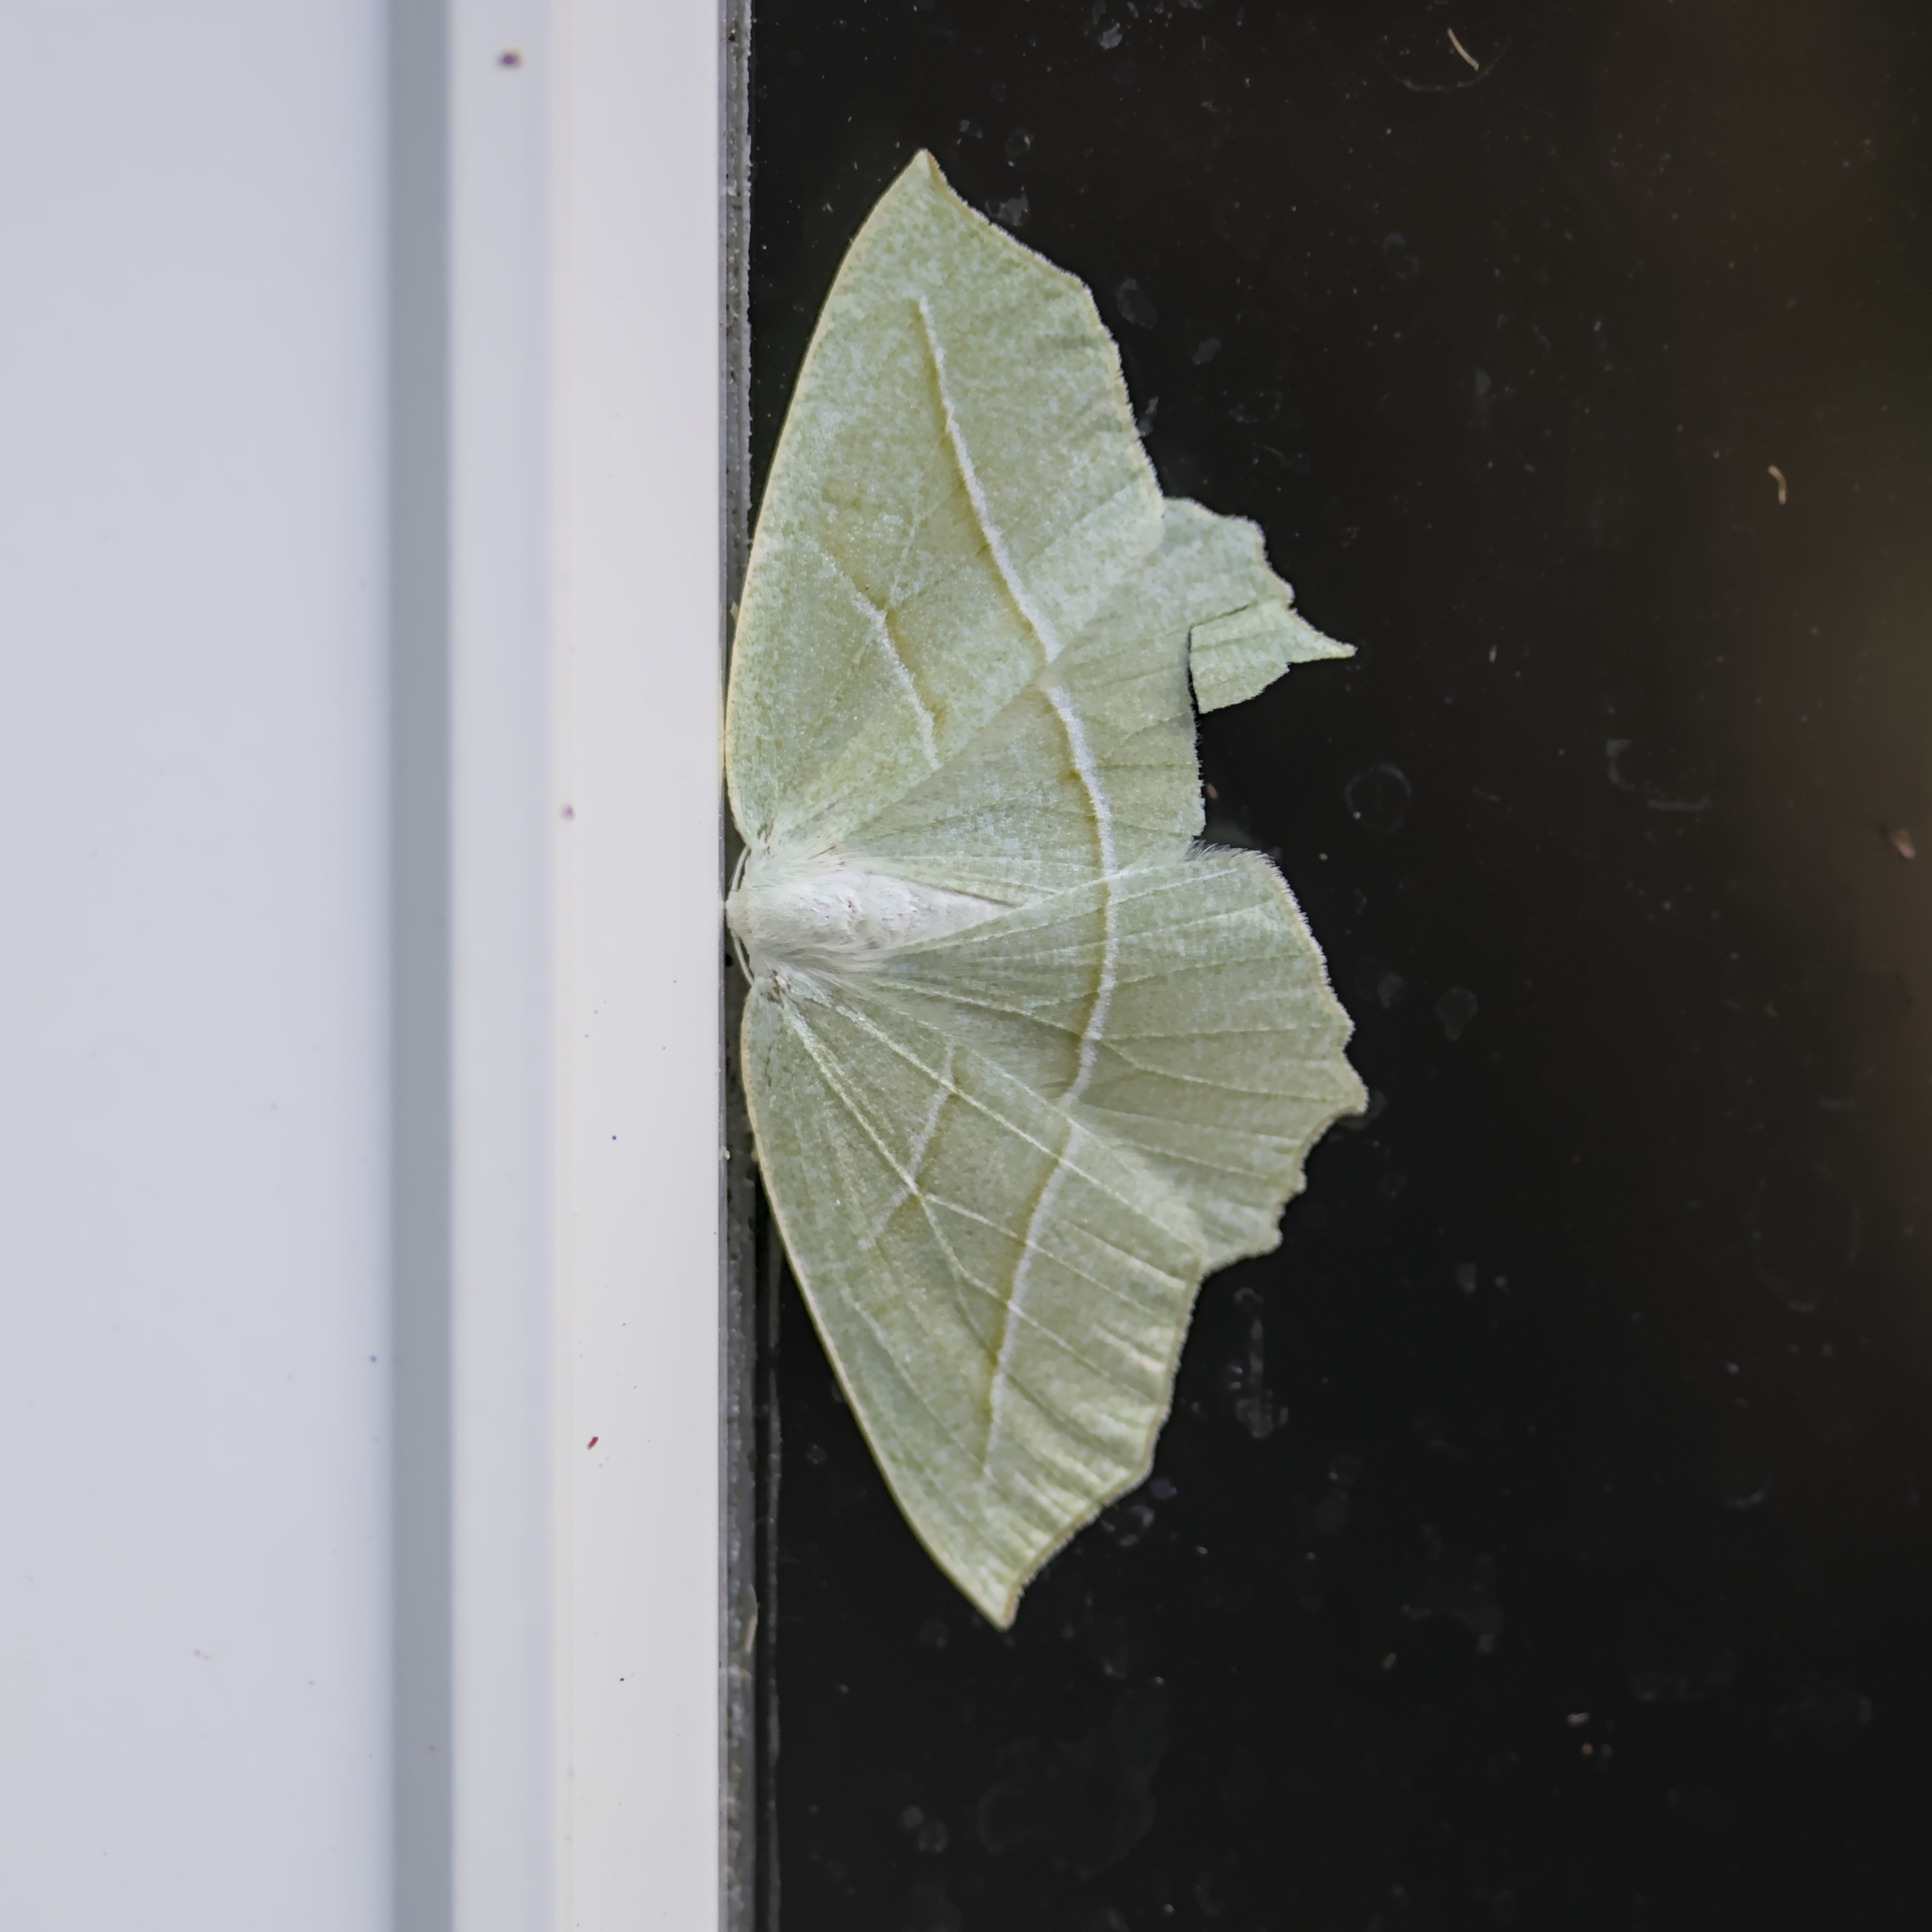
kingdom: Animalia
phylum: Arthropoda
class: Insecta
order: Lepidoptera
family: Geometridae
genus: Campaea
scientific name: Campaea perlata
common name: Fringed looper
